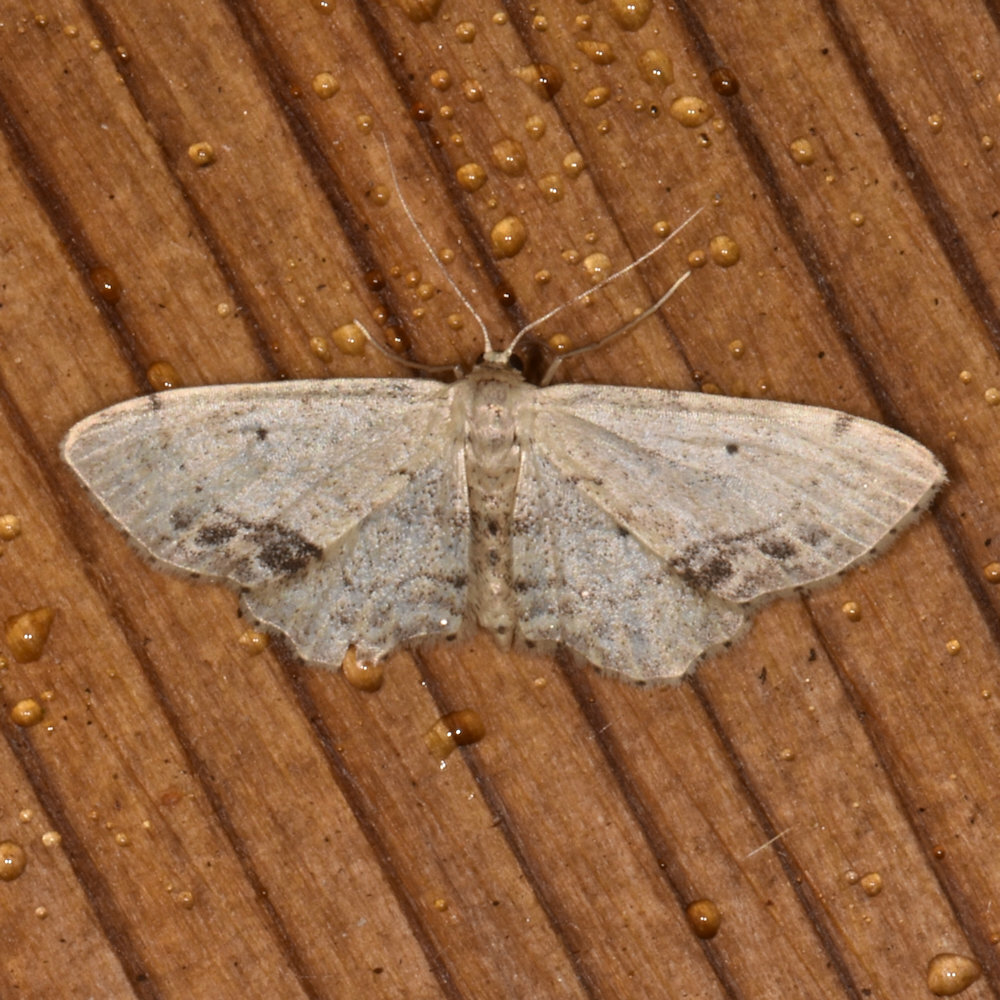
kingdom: Animalia
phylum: Arthropoda
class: Insecta
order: Lepidoptera
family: Geometridae
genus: Idaea
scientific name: Idaea dimidiata
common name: Single-dotted wave
